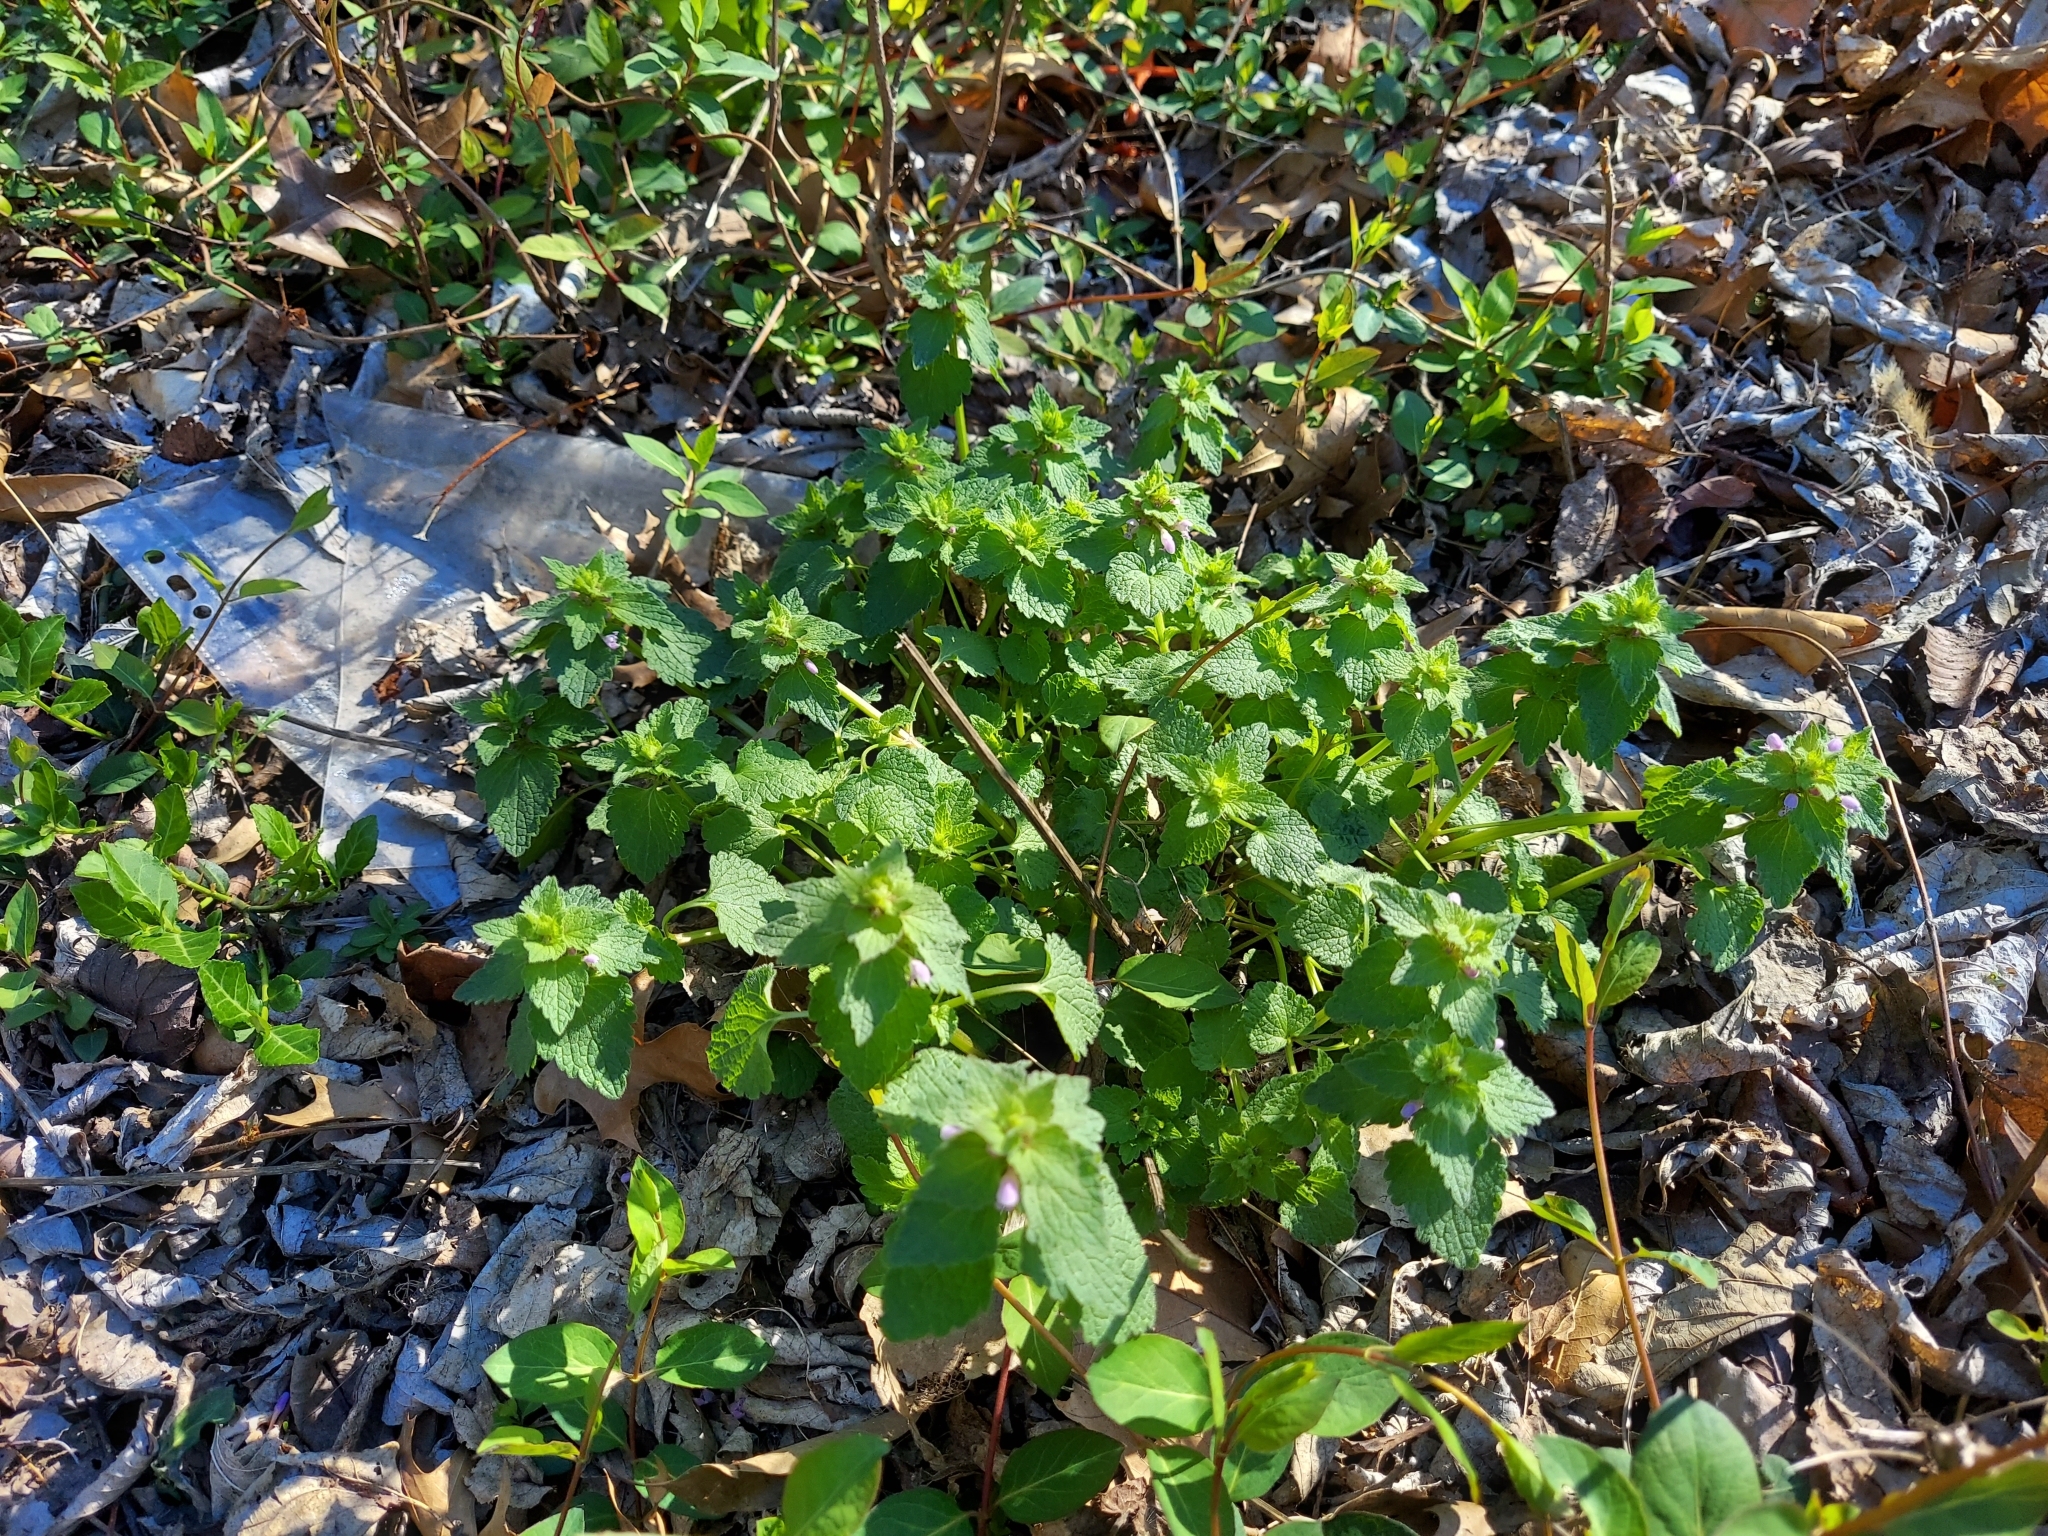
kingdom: Plantae
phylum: Tracheophyta
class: Magnoliopsida
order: Lamiales
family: Lamiaceae
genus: Lamium
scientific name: Lamium purpureum
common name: Red dead-nettle
